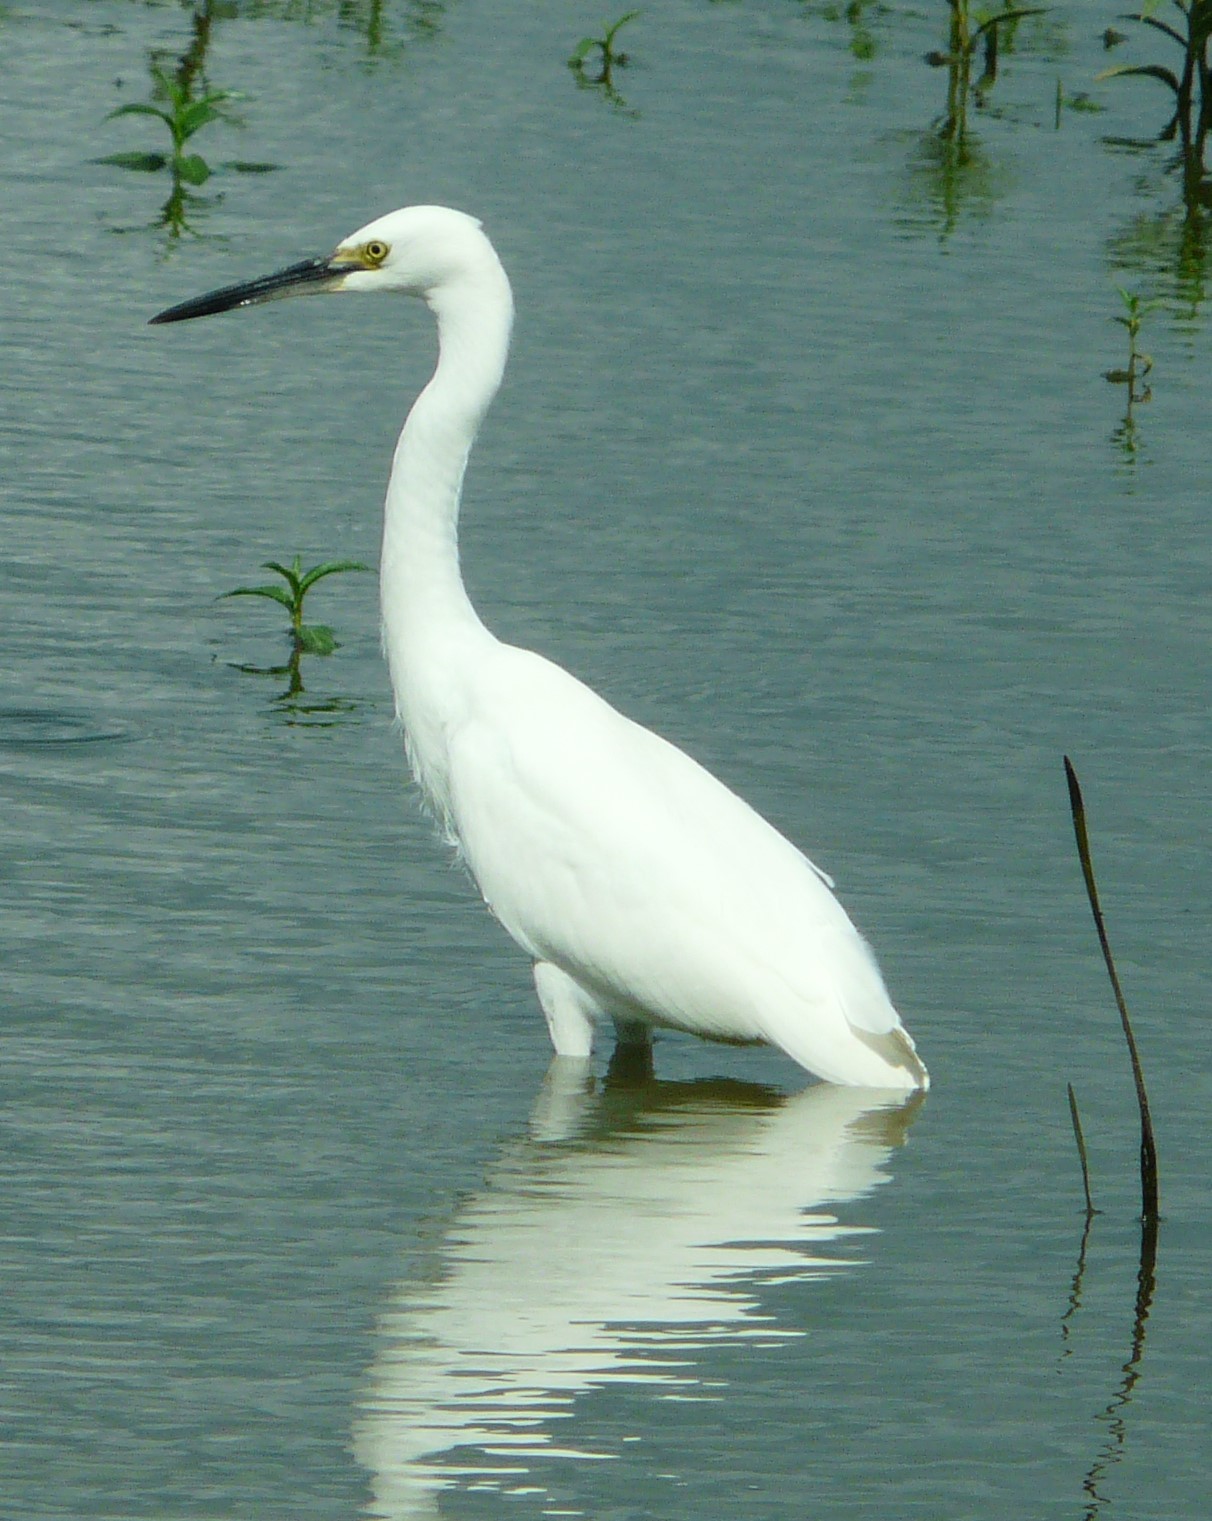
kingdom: Animalia
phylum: Chordata
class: Aves
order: Pelecaniformes
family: Ardeidae
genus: Egretta
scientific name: Egretta thula
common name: Snowy egret
